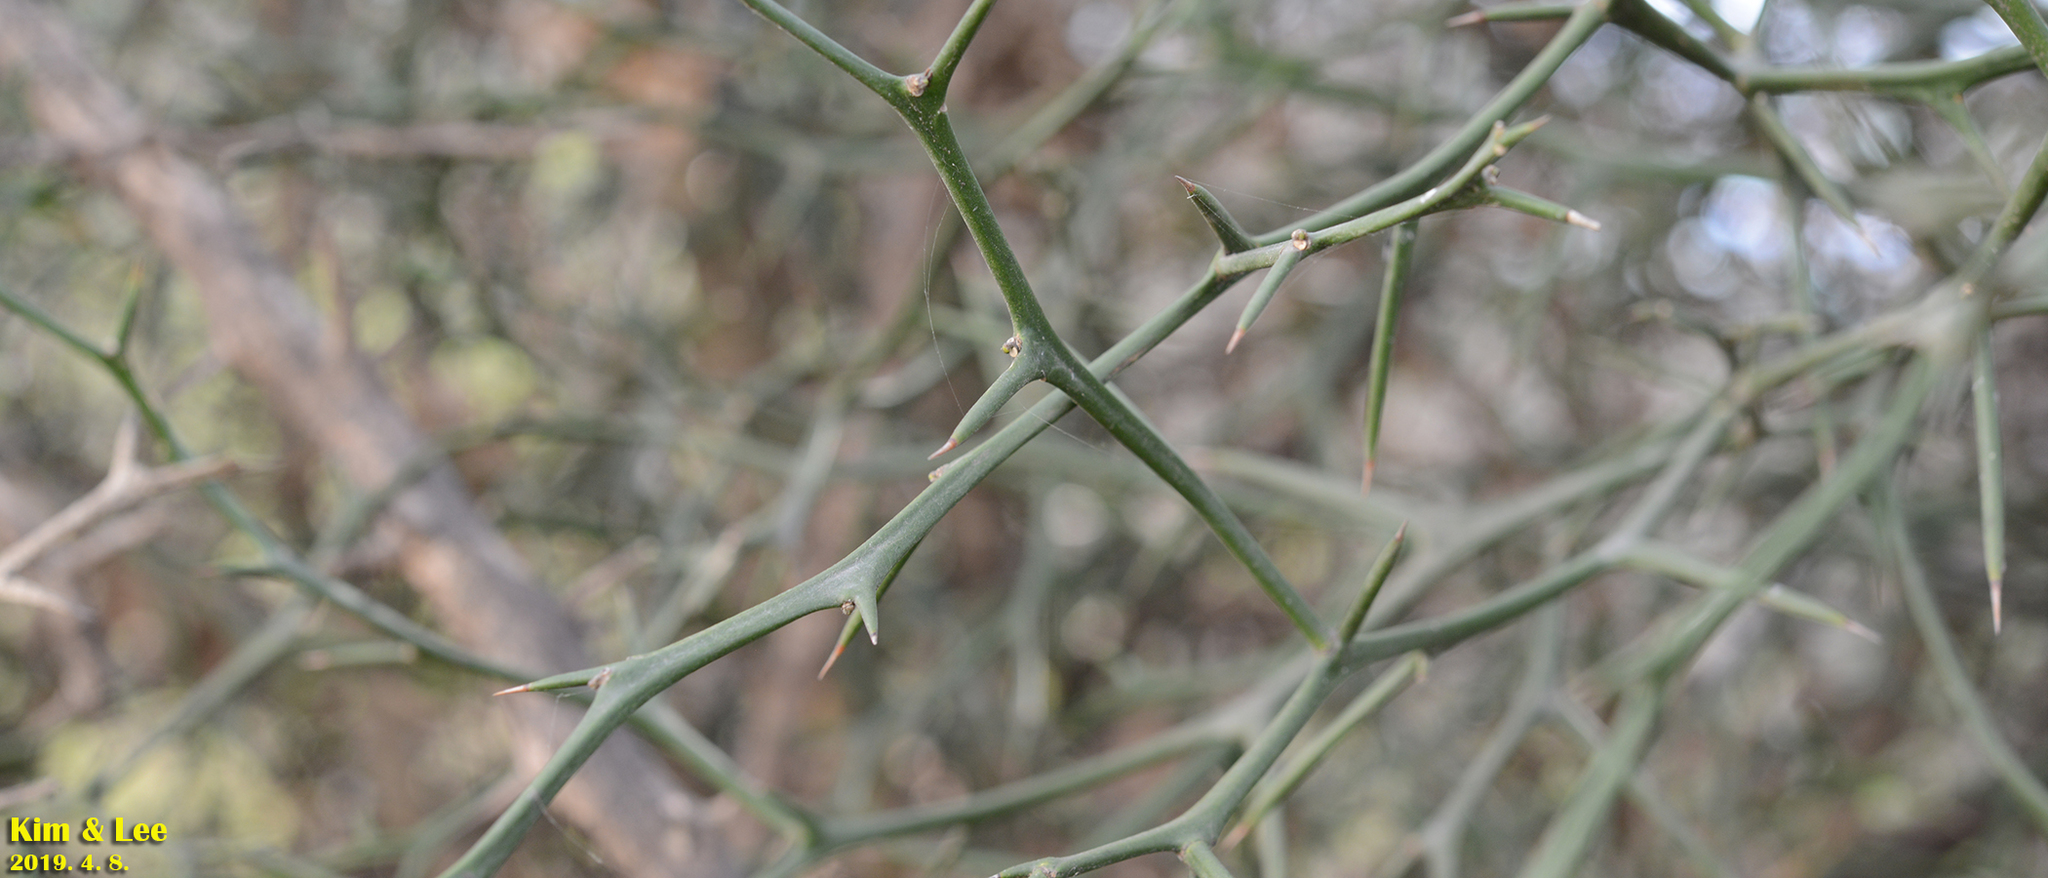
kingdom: Plantae
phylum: Tracheophyta
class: Magnoliopsida
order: Sapindales
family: Rutaceae
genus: Citrus
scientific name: Citrus trifoliata
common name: Japanese bitter-orange
